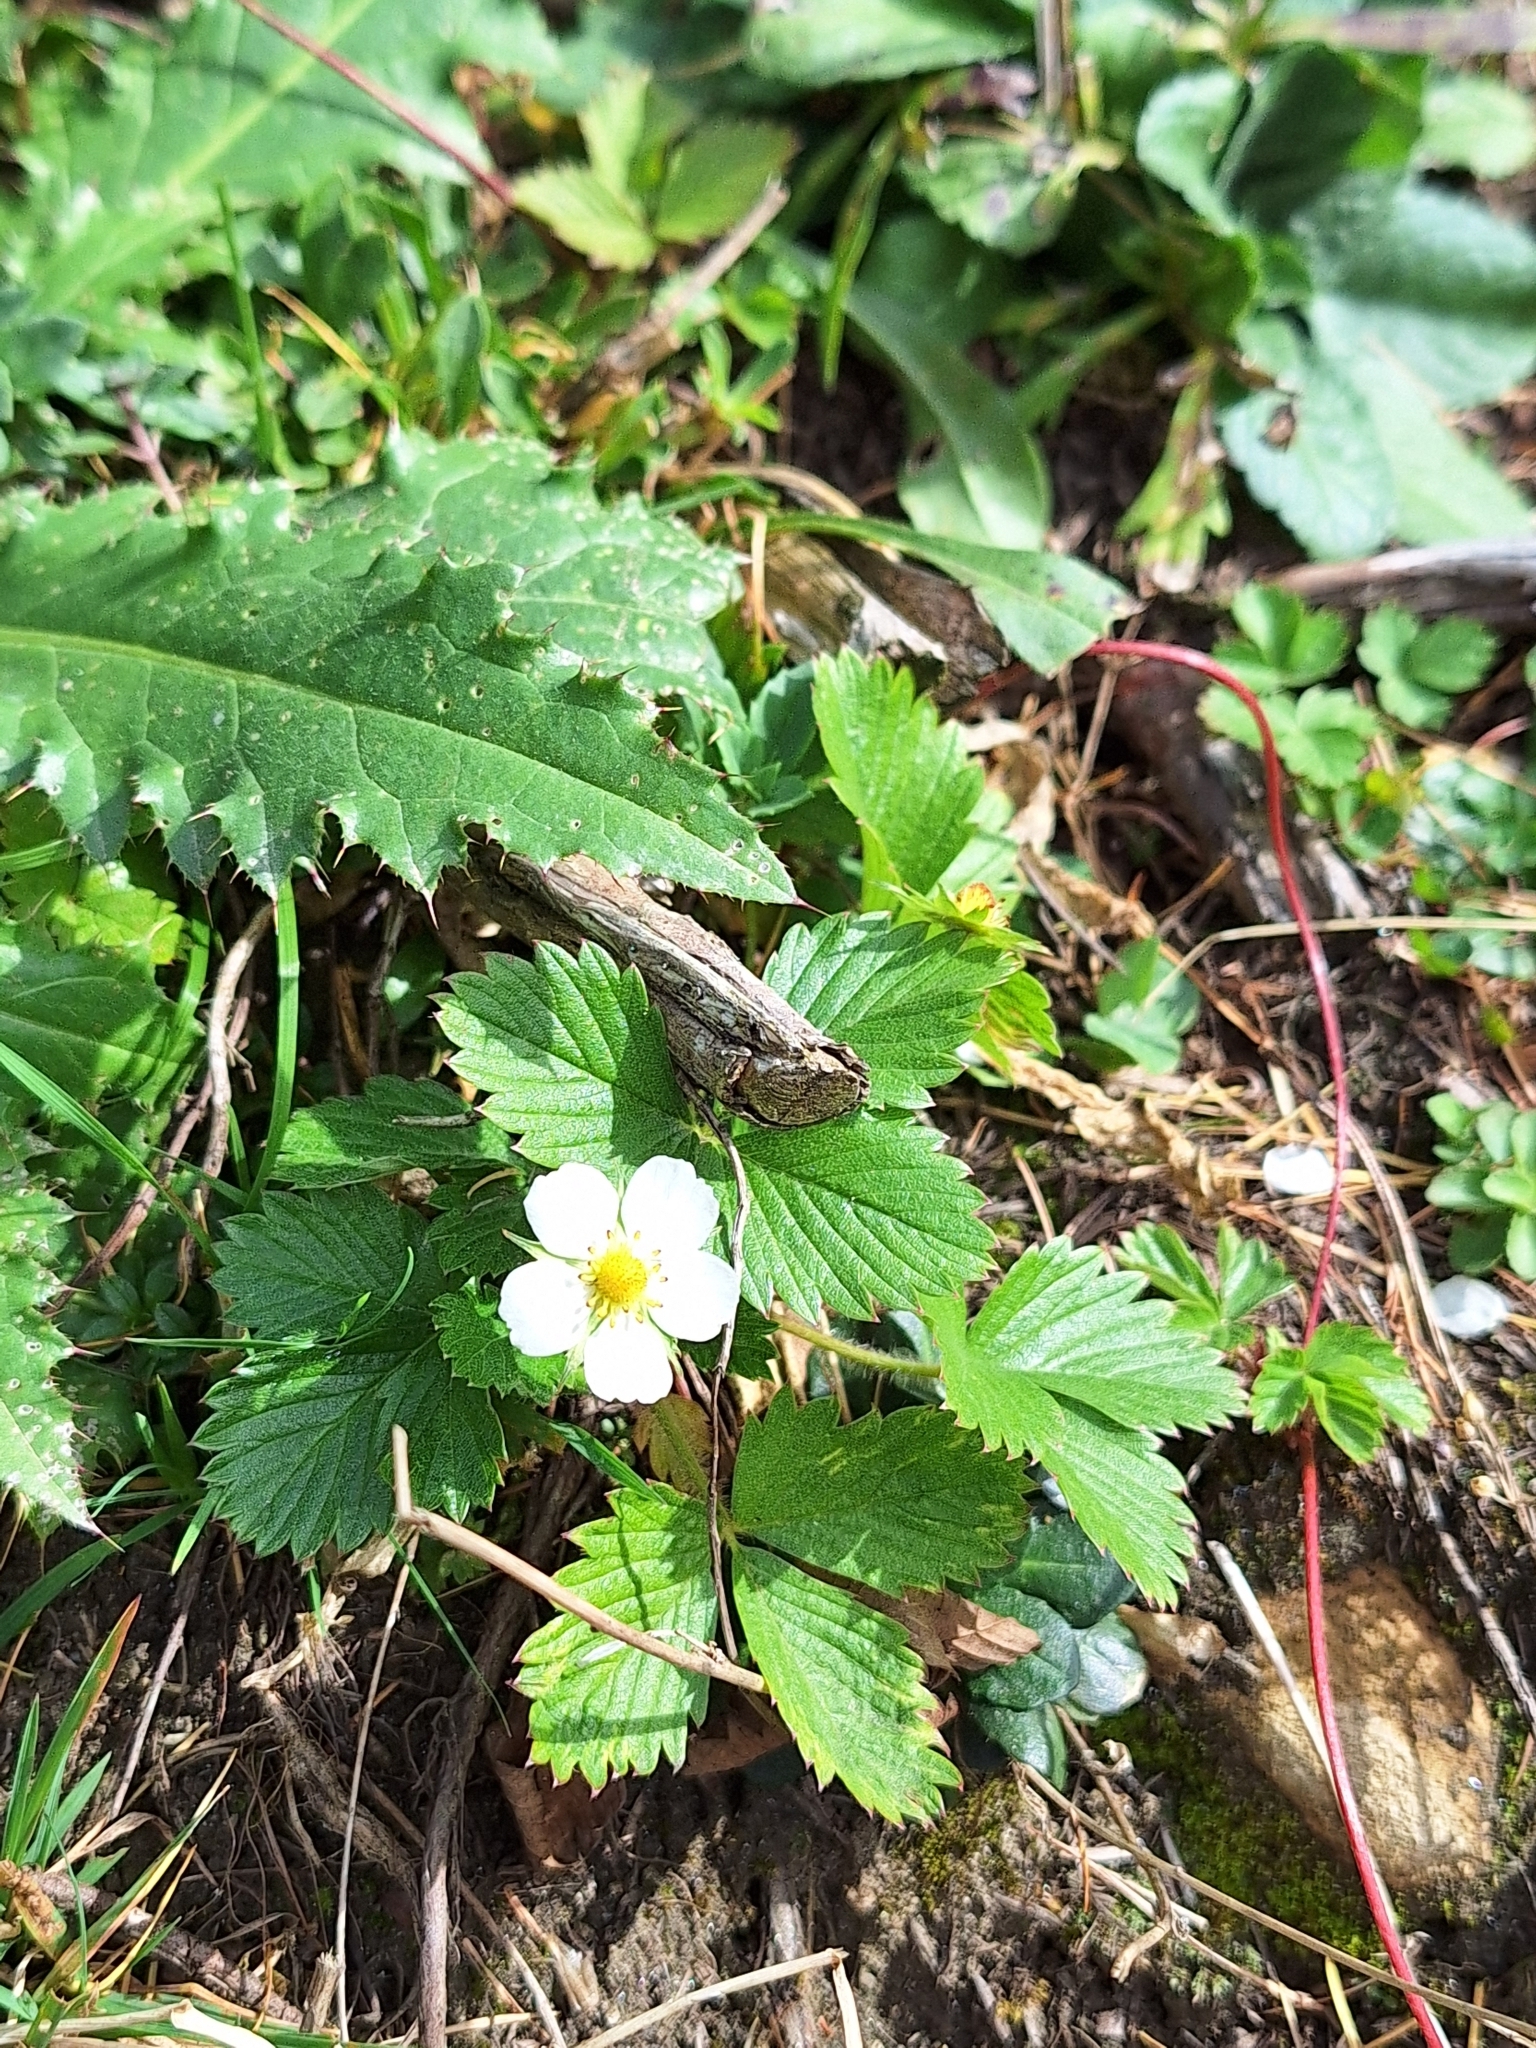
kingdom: Plantae
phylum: Tracheophyta
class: Magnoliopsida
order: Rosales
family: Rosaceae
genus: Fragaria
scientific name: Fragaria vesca
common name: Wild strawberry
